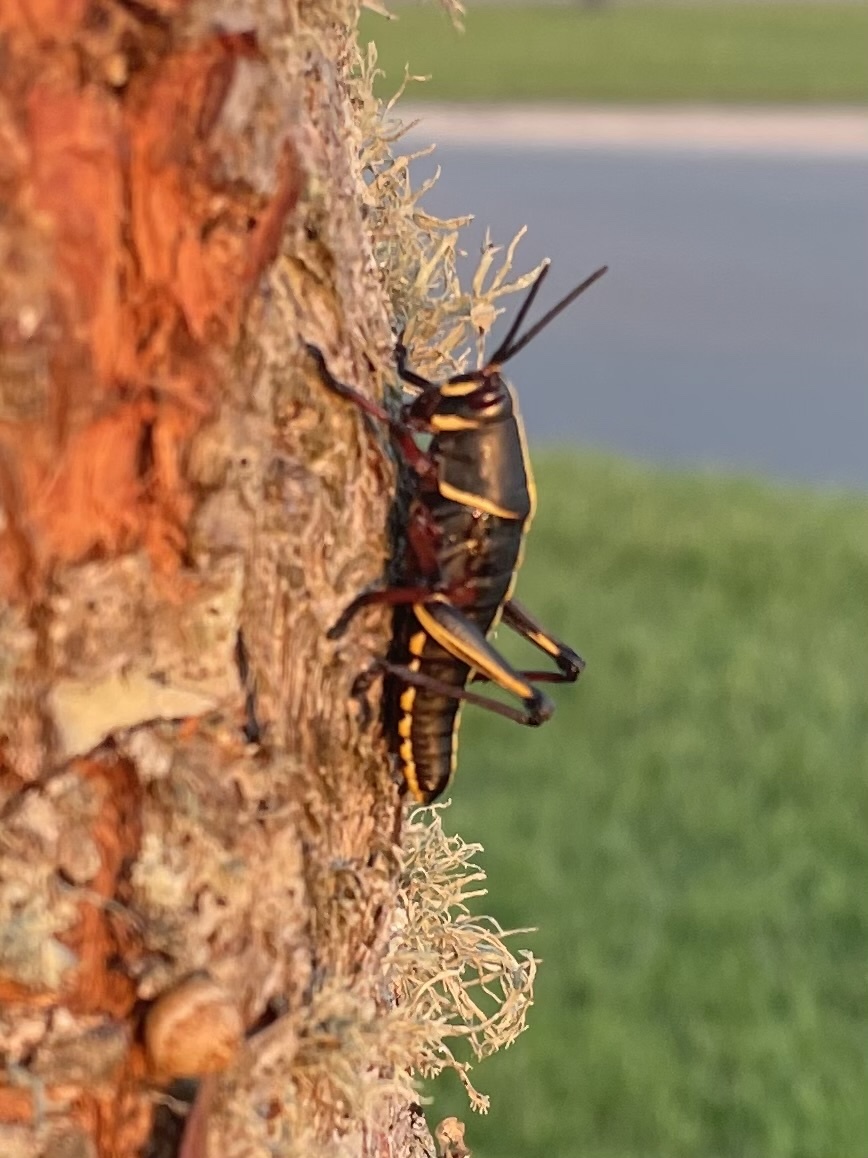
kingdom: Animalia
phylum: Arthropoda
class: Insecta
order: Orthoptera
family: Romaleidae
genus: Romalea
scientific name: Romalea microptera
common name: Eastern lubber grasshopper
